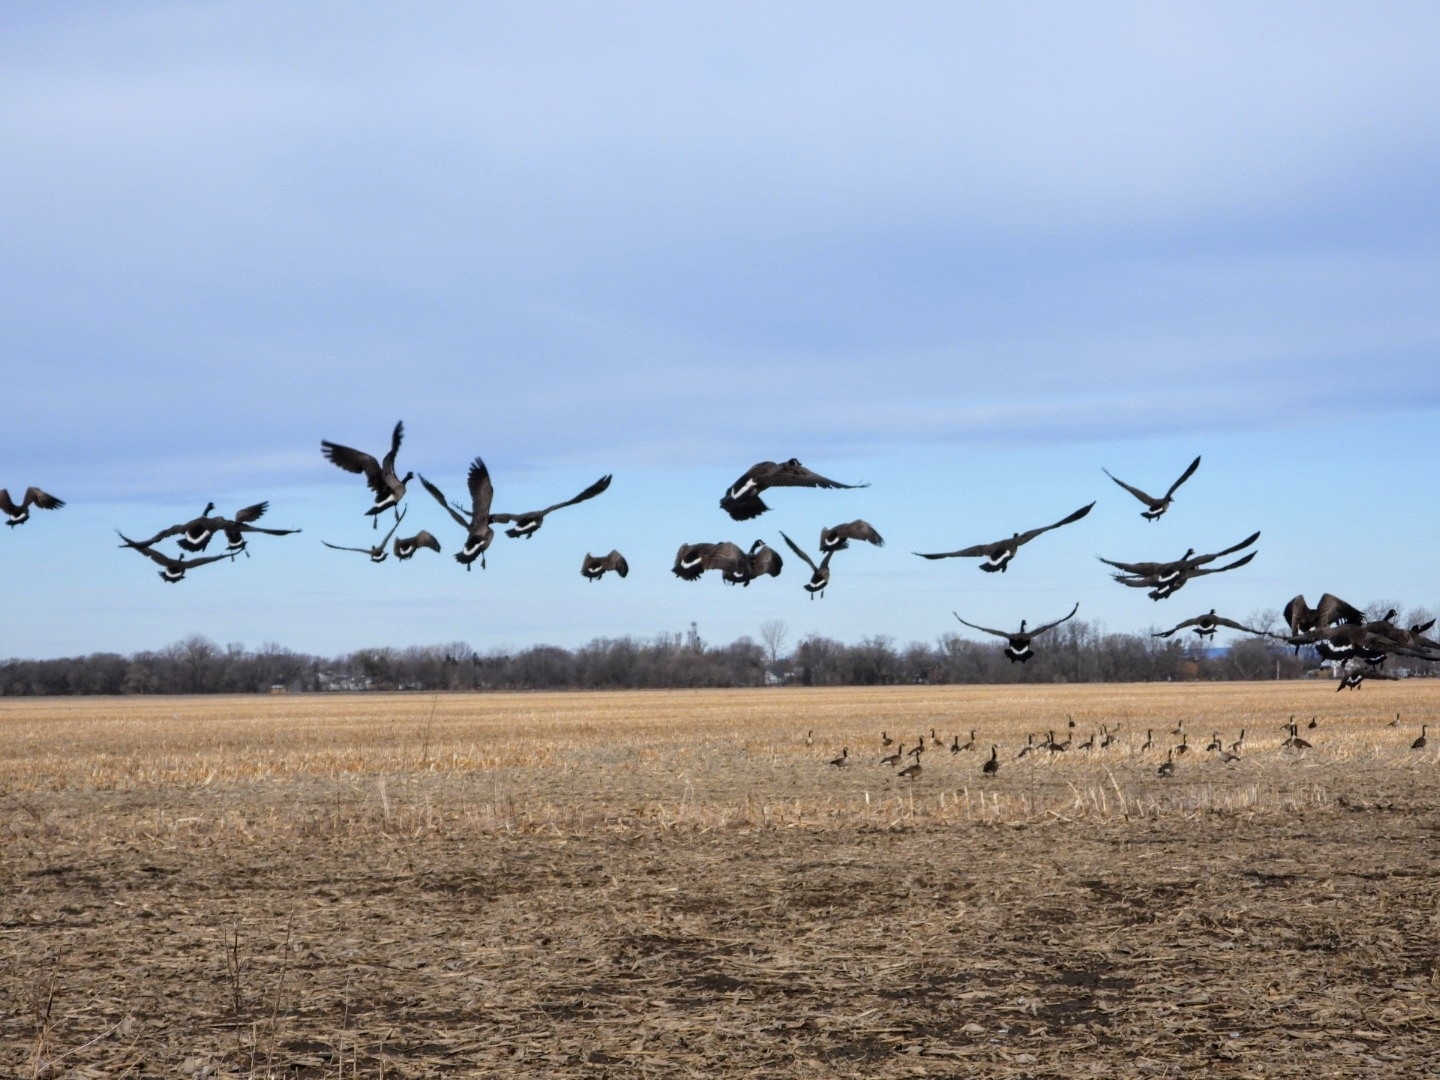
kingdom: Animalia
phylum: Chordata
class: Aves
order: Anseriformes
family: Anatidae
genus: Branta
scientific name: Branta canadensis
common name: Canada goose
